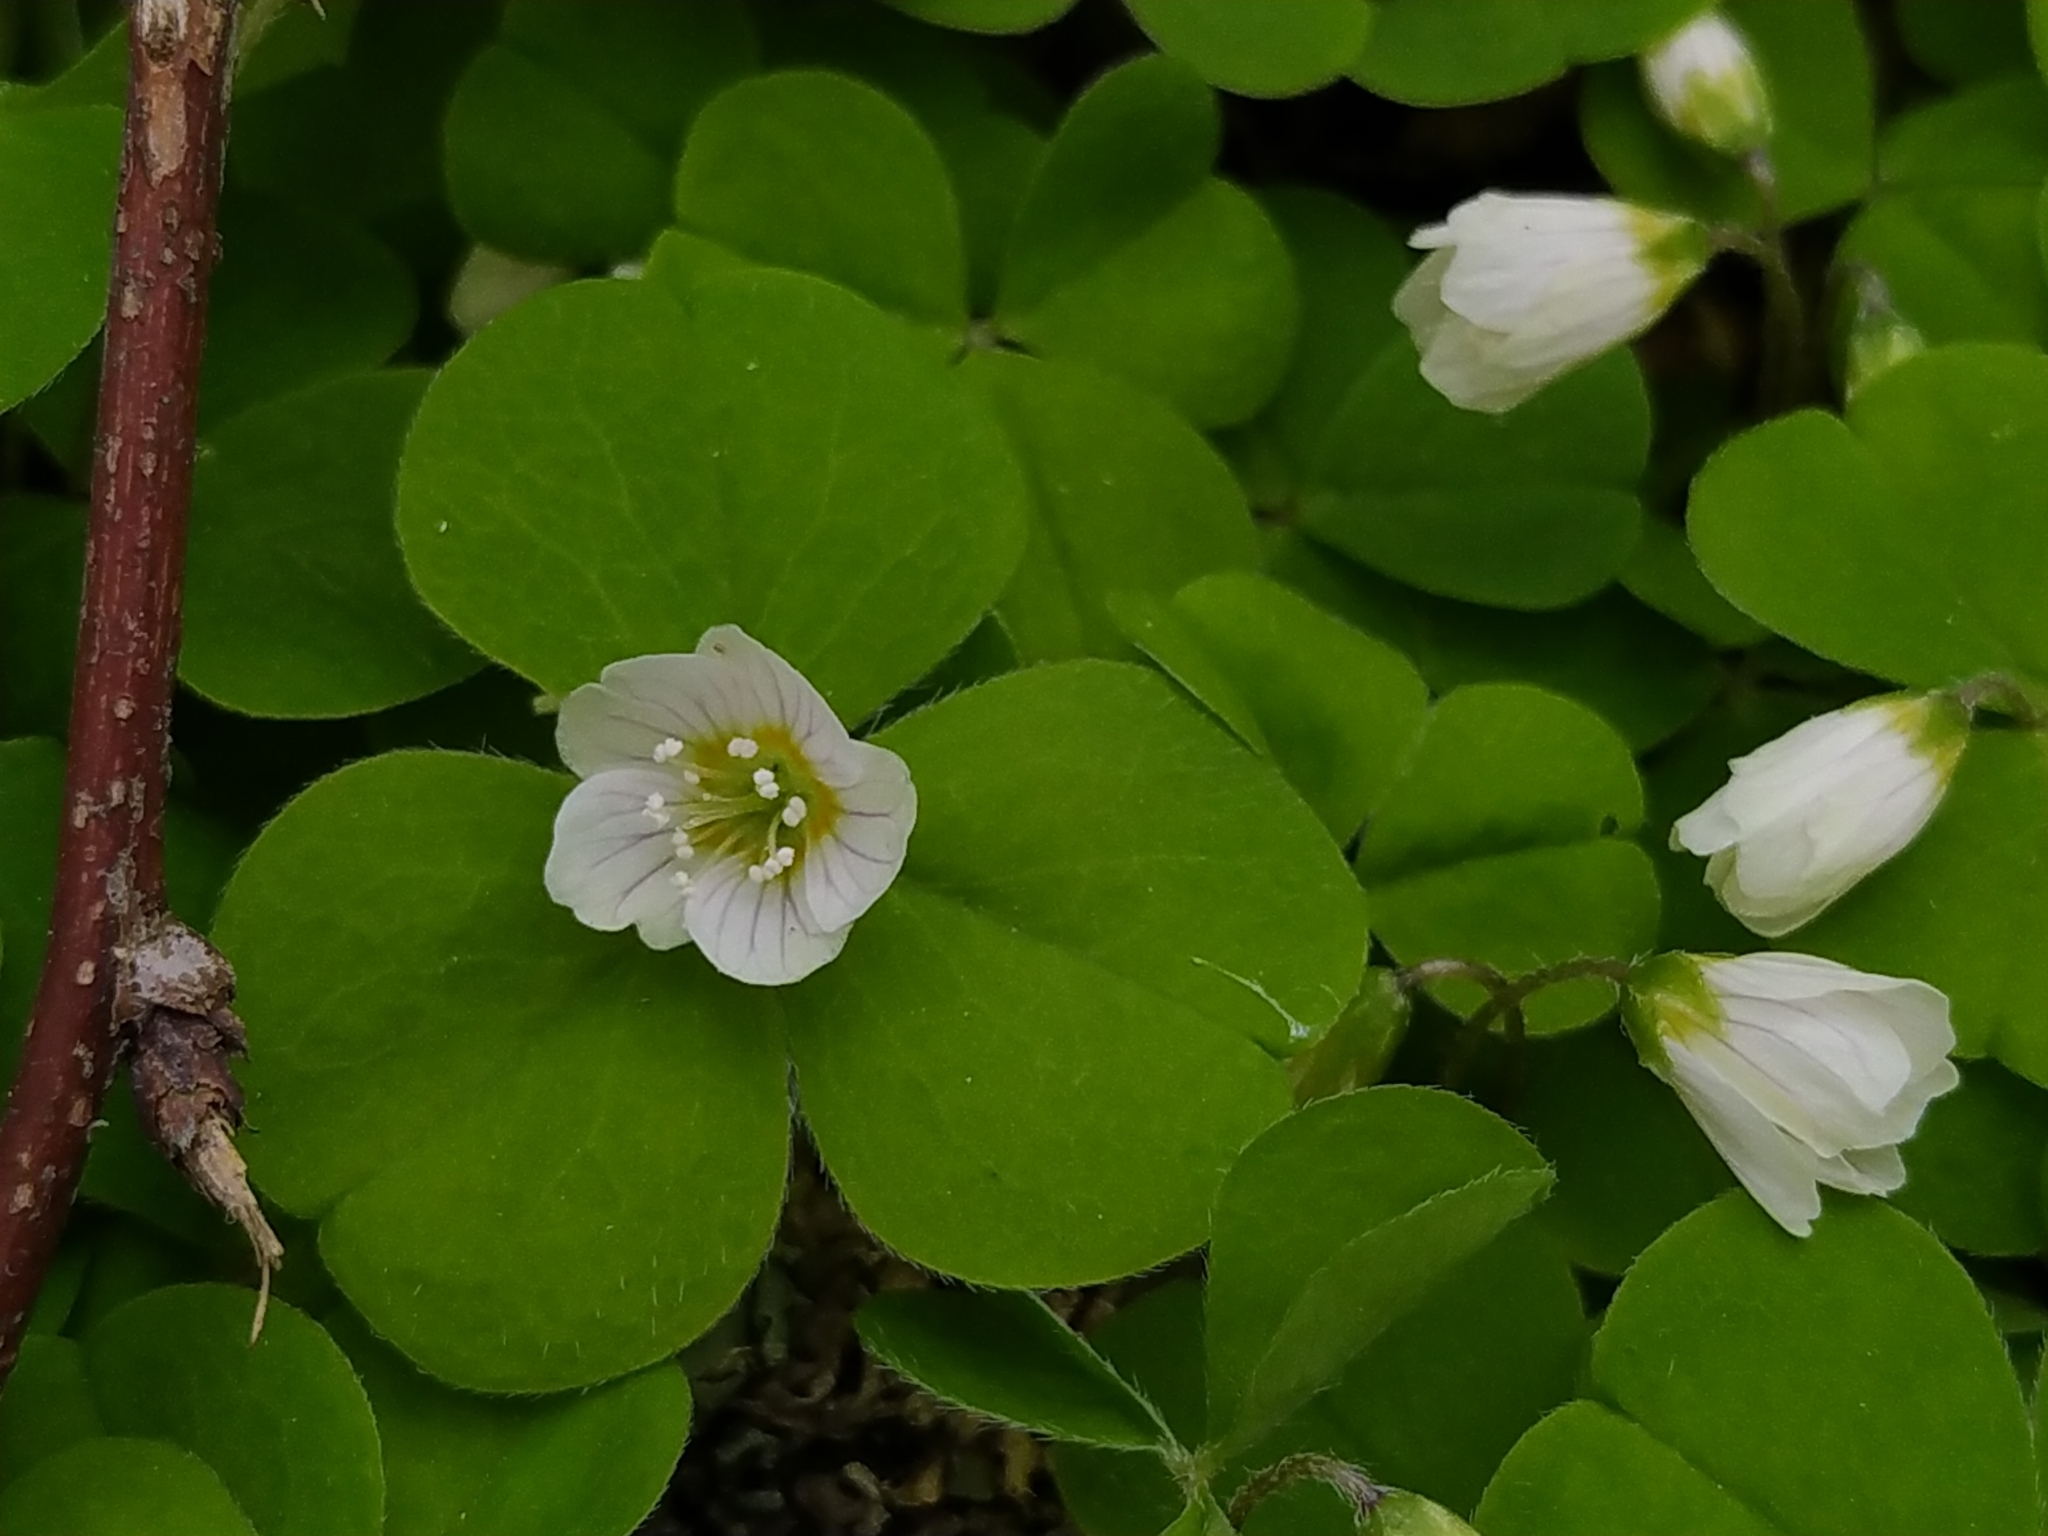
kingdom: Plantae
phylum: Tracheophyta
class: Magnoliopsida
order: Oxalidales
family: Oxalidaceae
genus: Oxalis
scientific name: Oxalis acetosella
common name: Wood-sorrel
